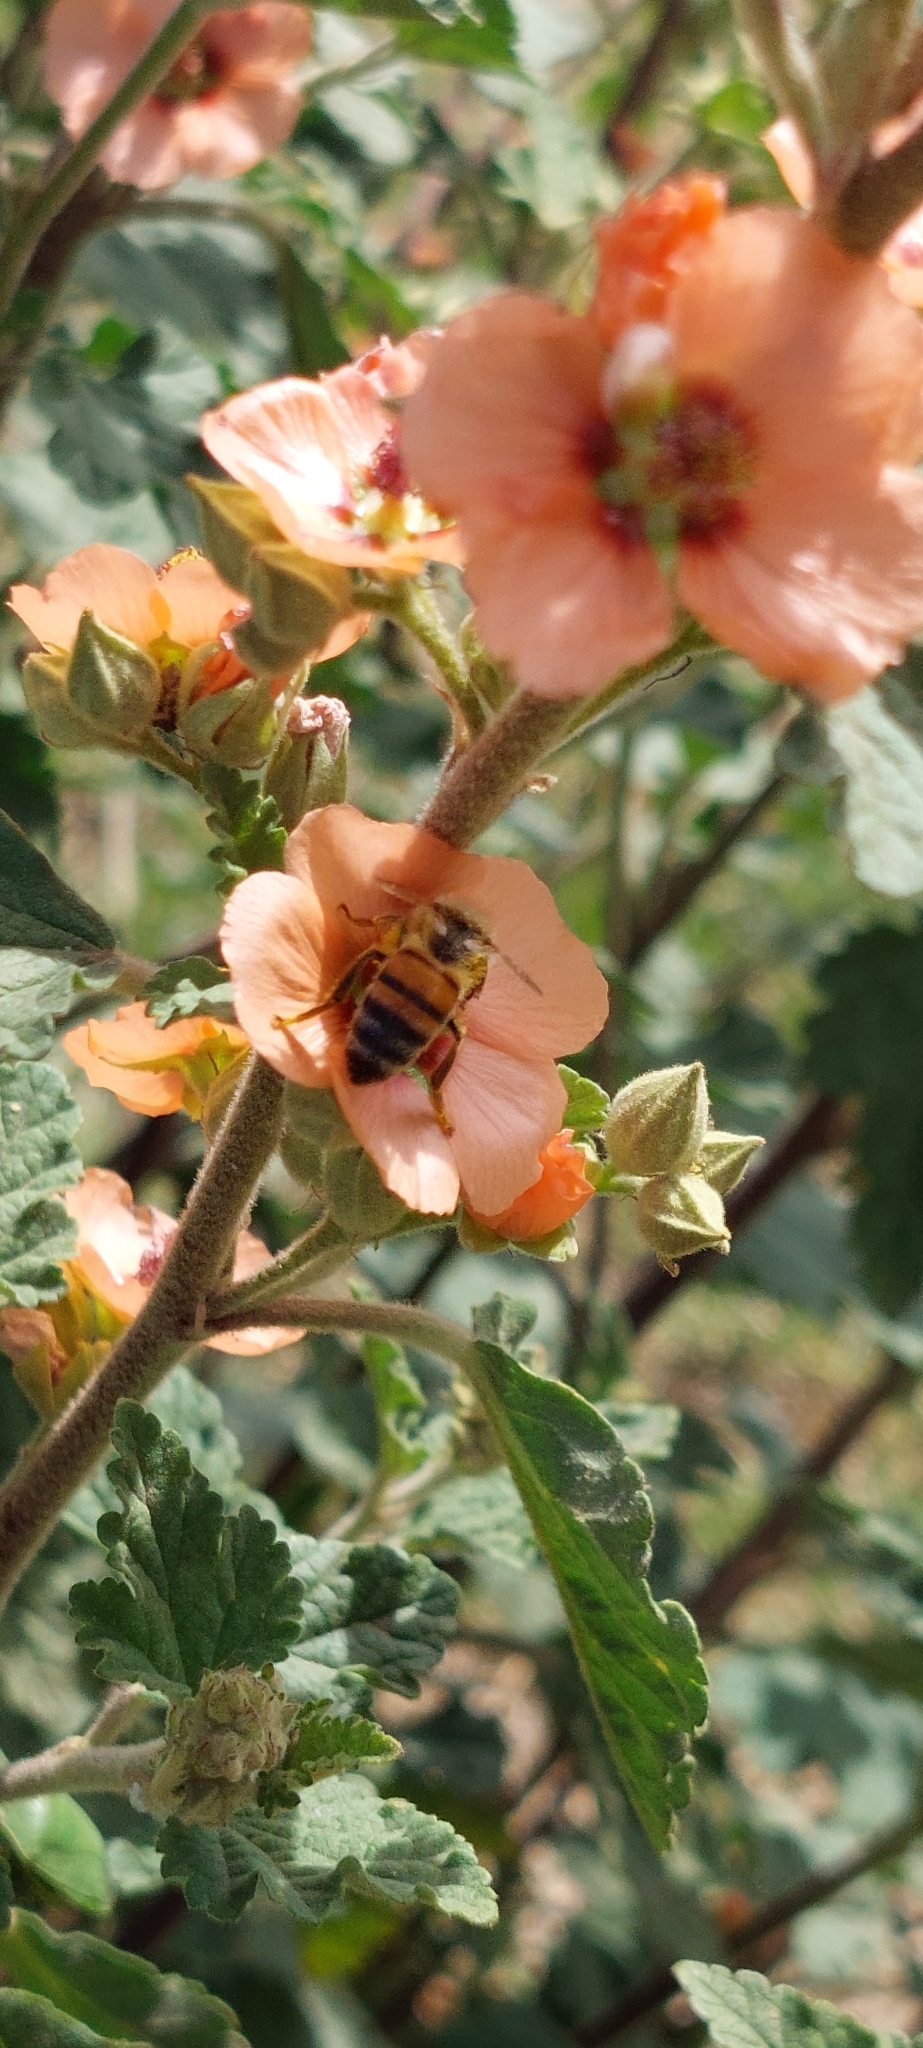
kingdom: Animalia
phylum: Arthropoda
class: Insecta
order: Hymenoptera
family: Apidae
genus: Apis
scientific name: Apis mellifera
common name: Honey bee
